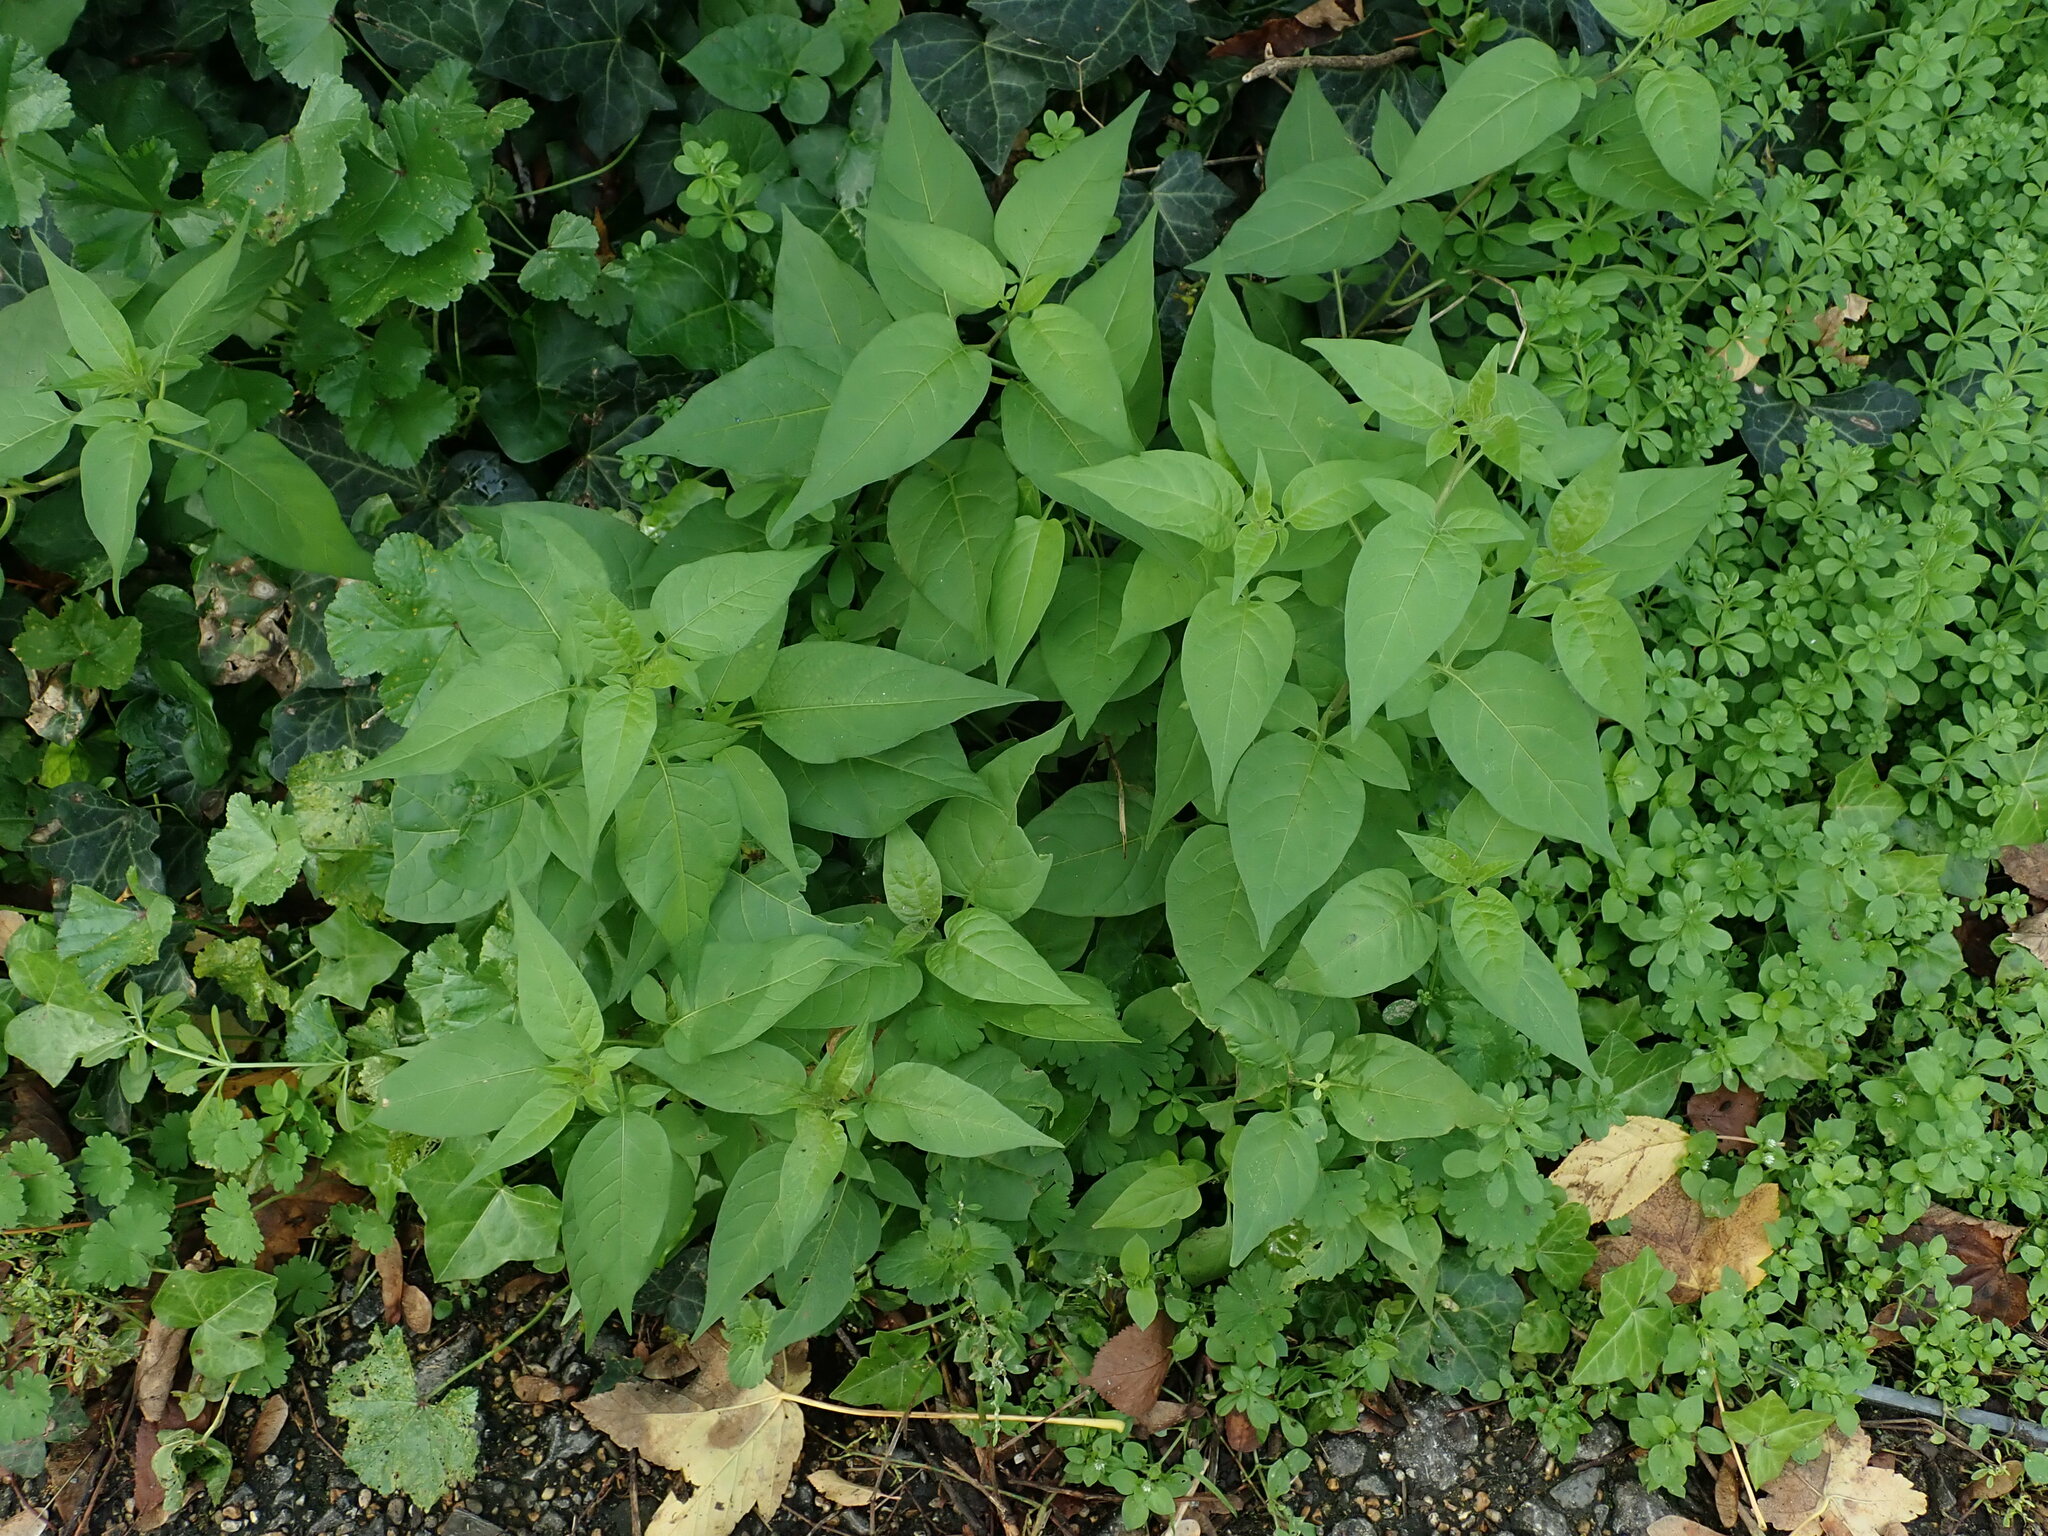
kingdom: Plantae
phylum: Tracheophyta
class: Magnoliopsida
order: Solanales
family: Solanaceae
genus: Solanum
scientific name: Solanum dulcamara
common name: Climbing nightshade
